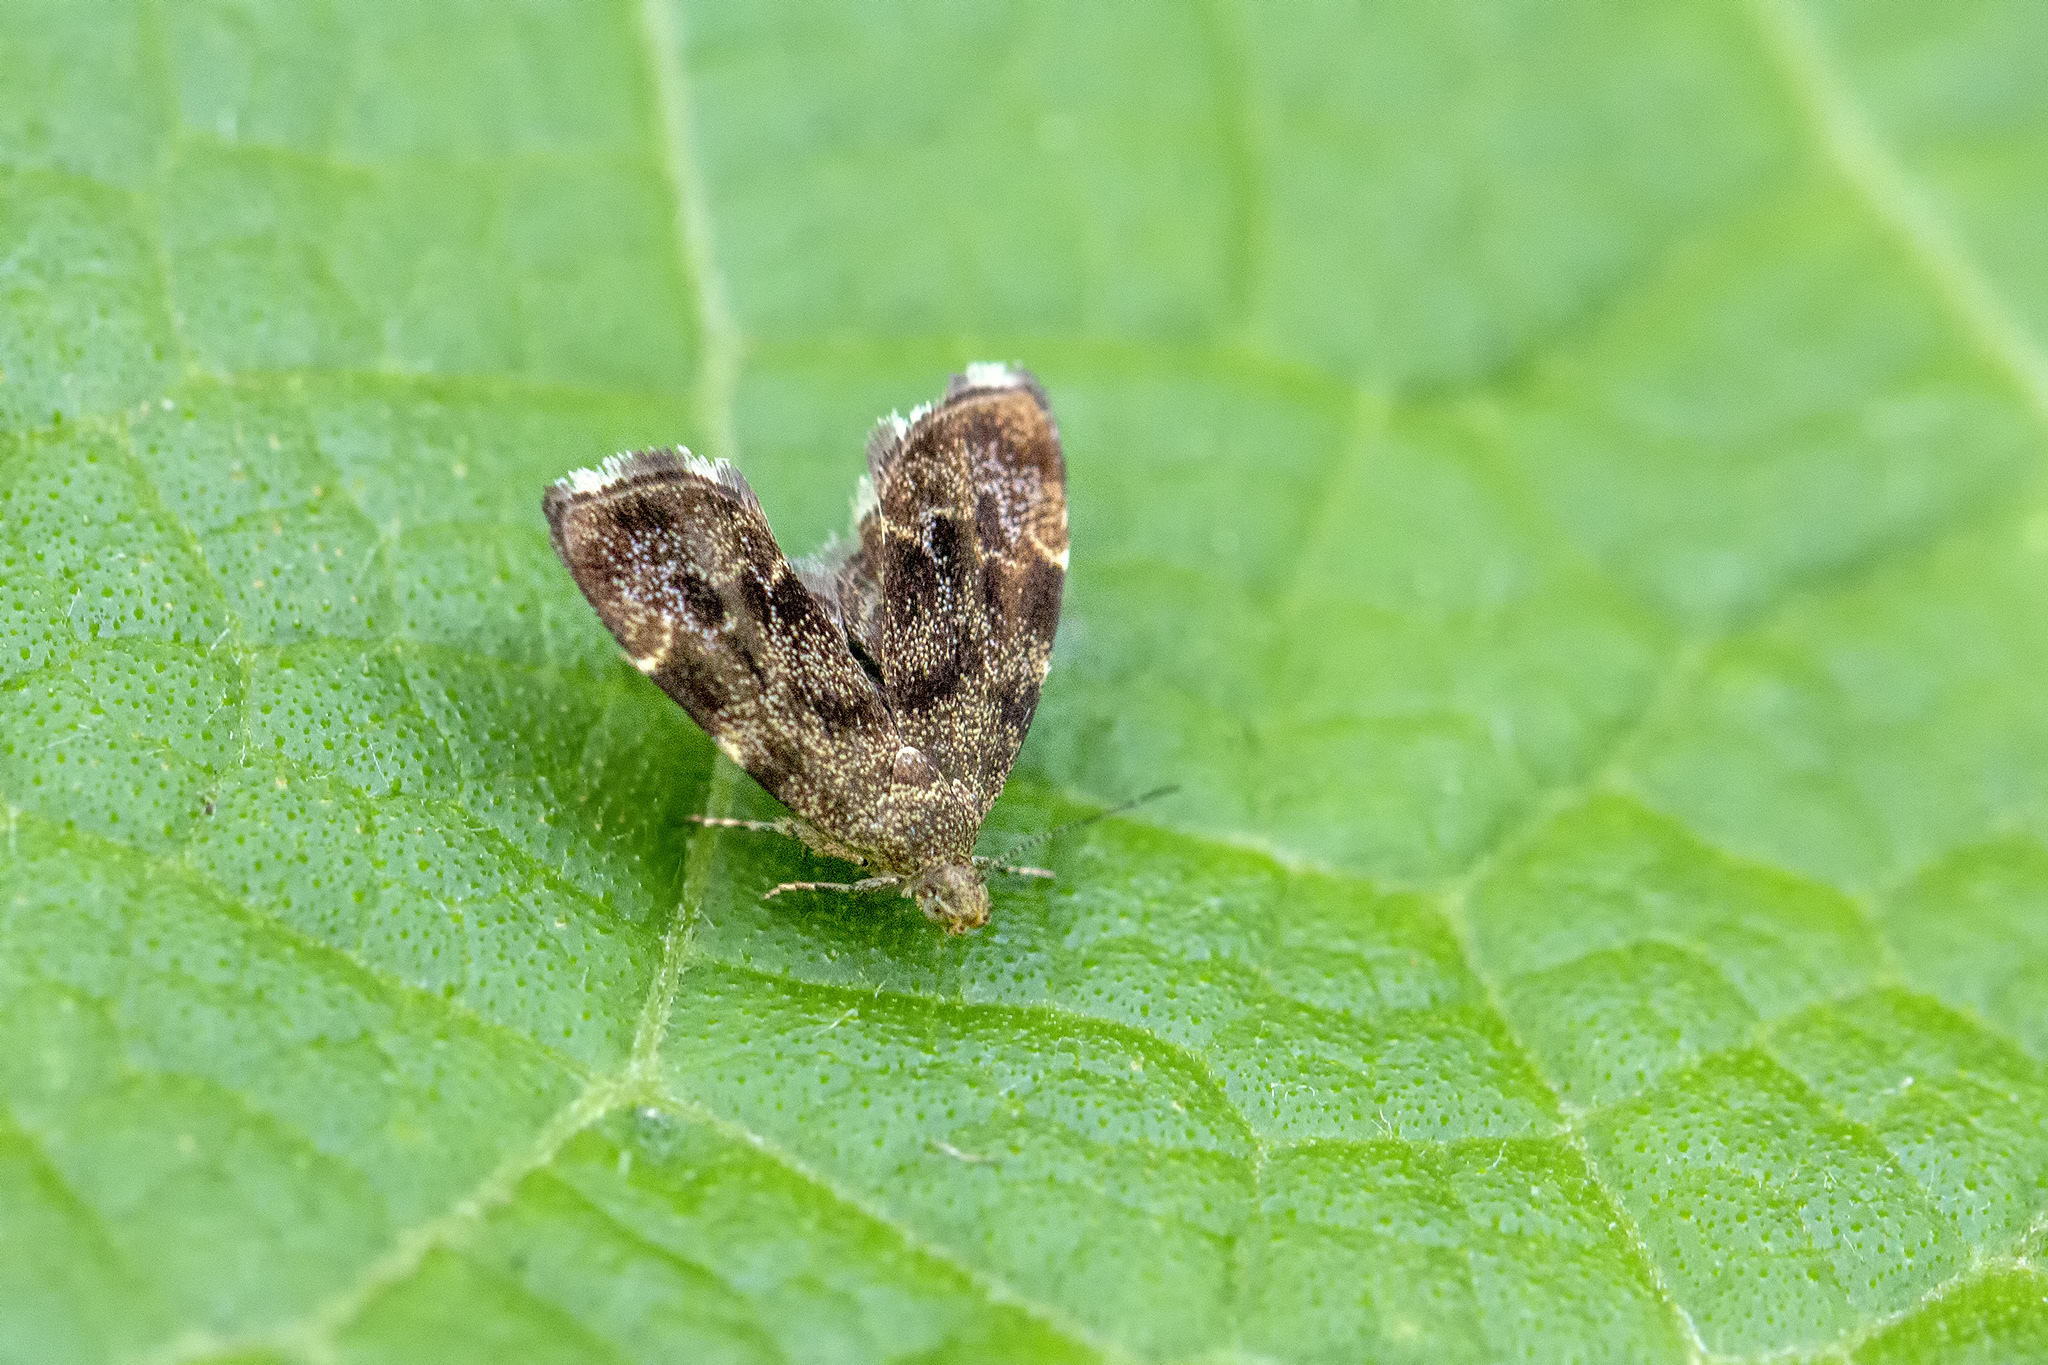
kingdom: Animalia
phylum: Arthropoda
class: Insecta
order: Lepidoptera
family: Choreutidae
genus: Anthophila
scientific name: Anthophila fabriciana
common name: Nettle-tap
